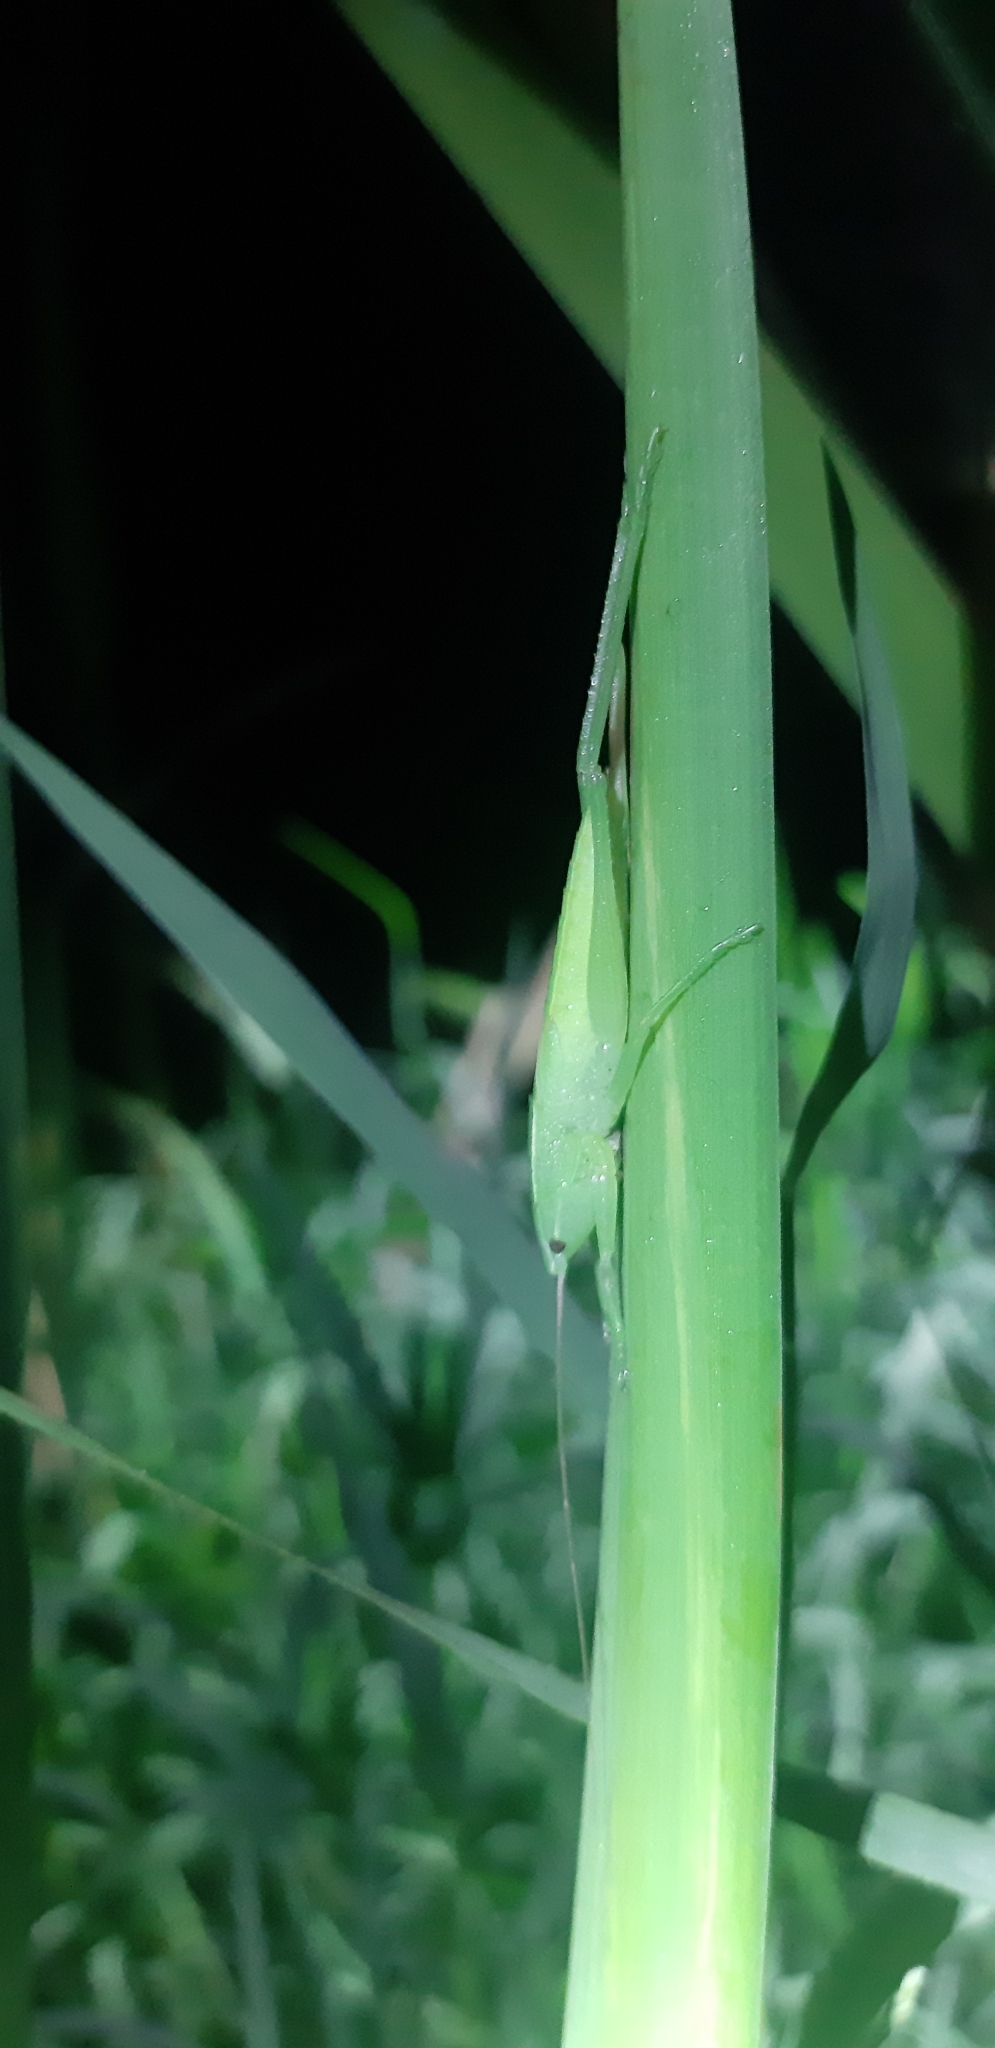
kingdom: Animalia
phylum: Arthropoda
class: Insecta
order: Orthoptera
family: Tettigoniidae
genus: Ruspolia
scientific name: Ruspolia nitidula
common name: Large conehead
